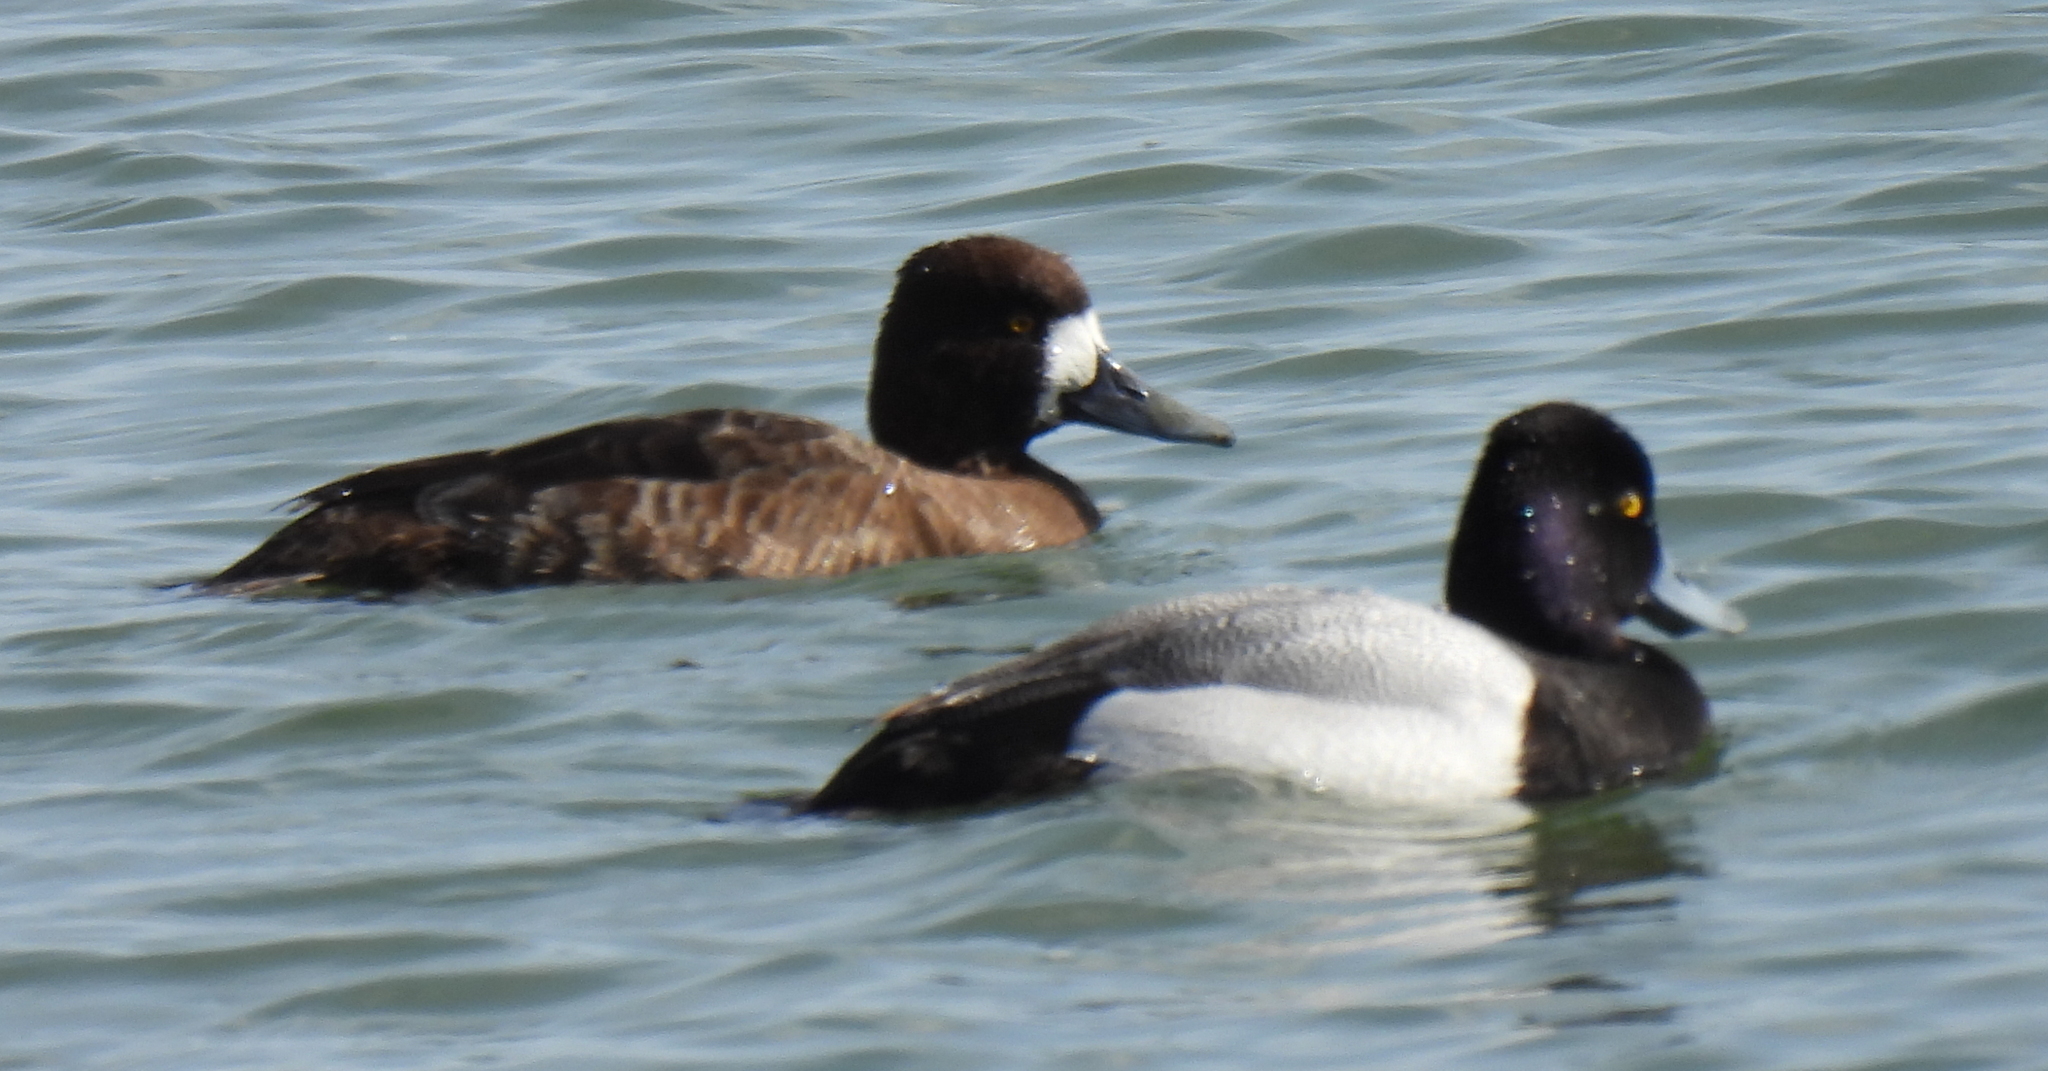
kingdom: Animalia
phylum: Chordata
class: Aves
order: Anseriformes
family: Anatidae
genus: Aythya
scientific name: Aythya affinis
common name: Lesser scaup
